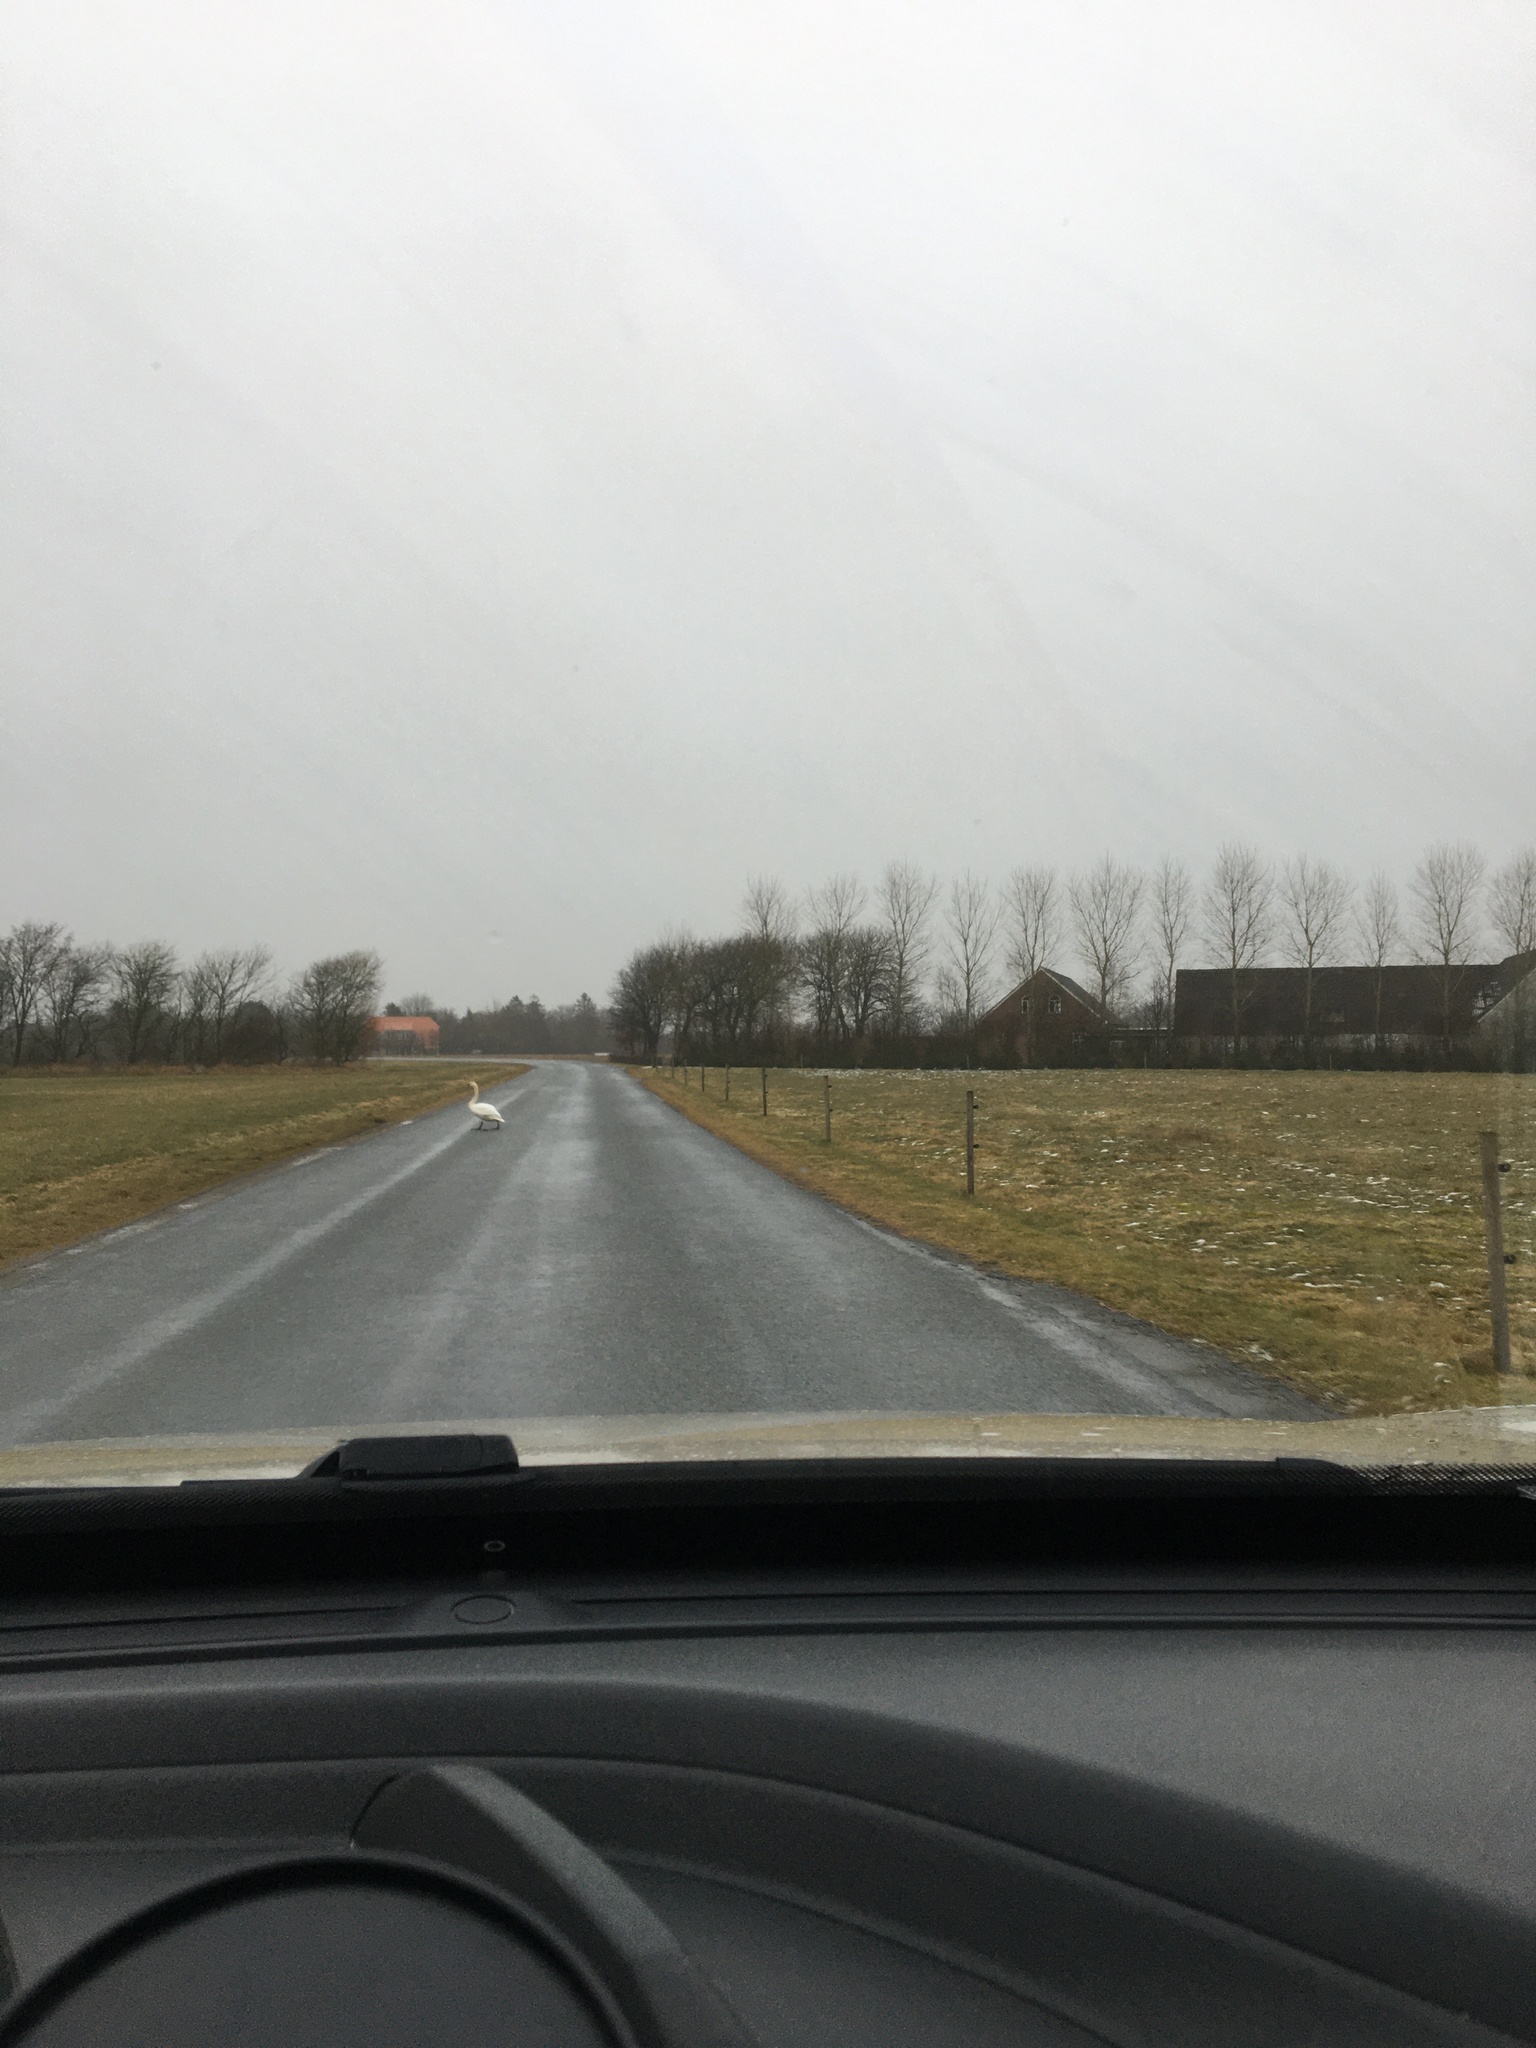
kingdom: Animalia
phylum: Chordata
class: Aves
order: Anseriformes
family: Anatidae
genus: Cygnus
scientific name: Cygnus olor
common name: Mute swan
